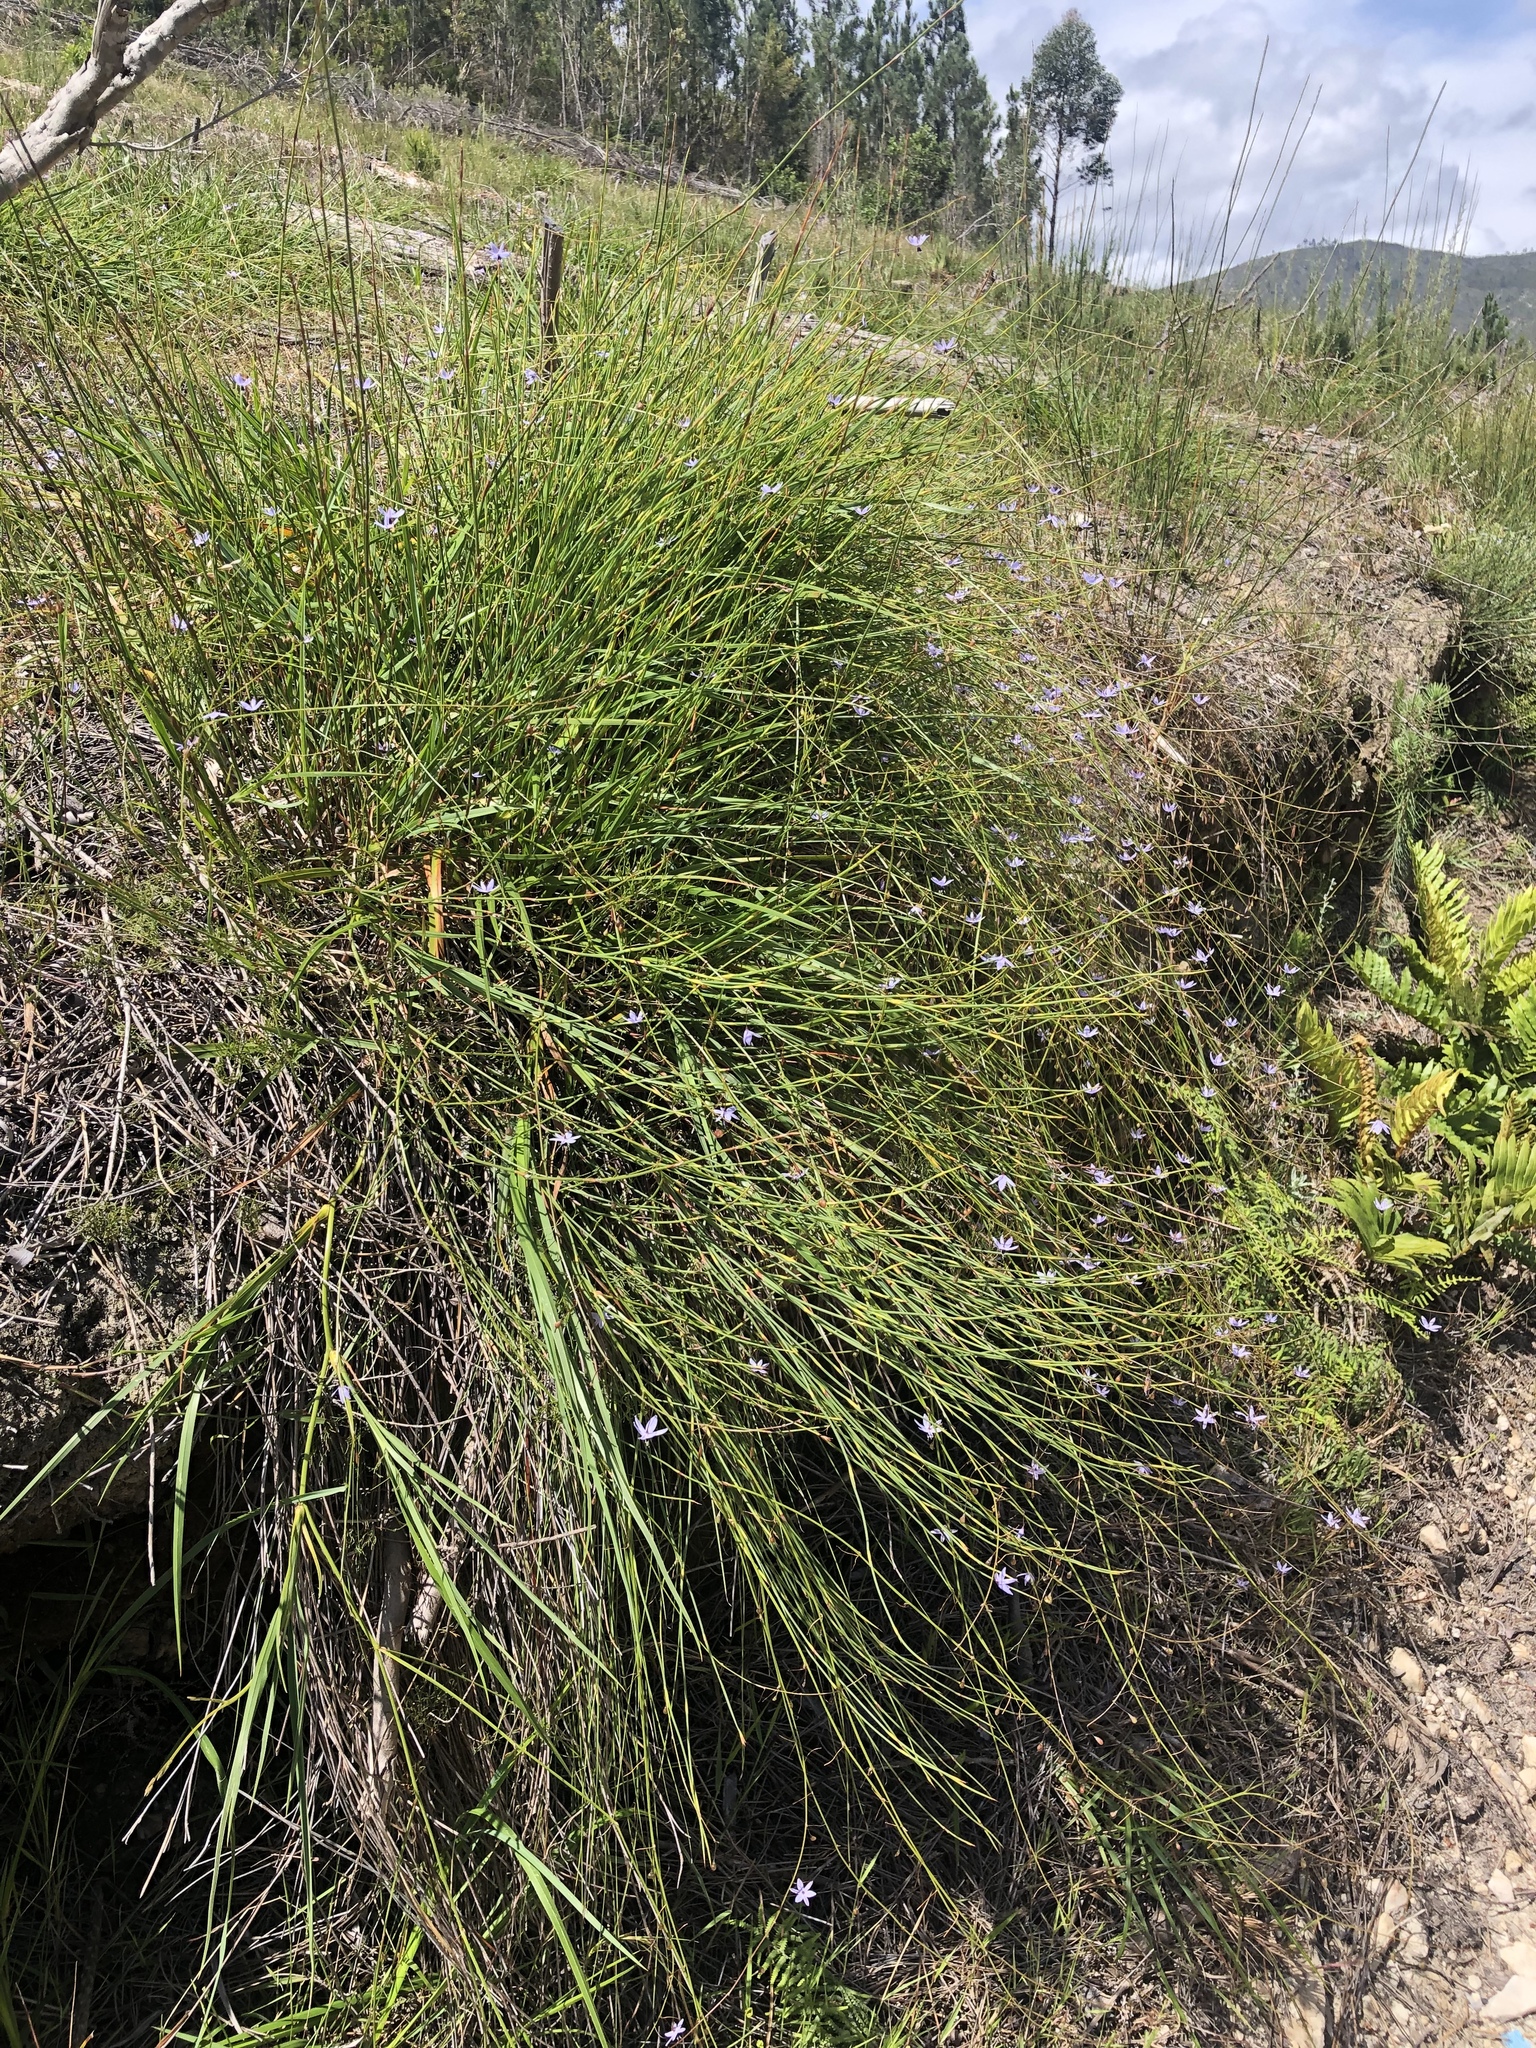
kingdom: Plantae
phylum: Tracheophyta
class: Liliopsida
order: Asparagales
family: Asphodelaceae
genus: Caesia
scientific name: Caesia contorta
